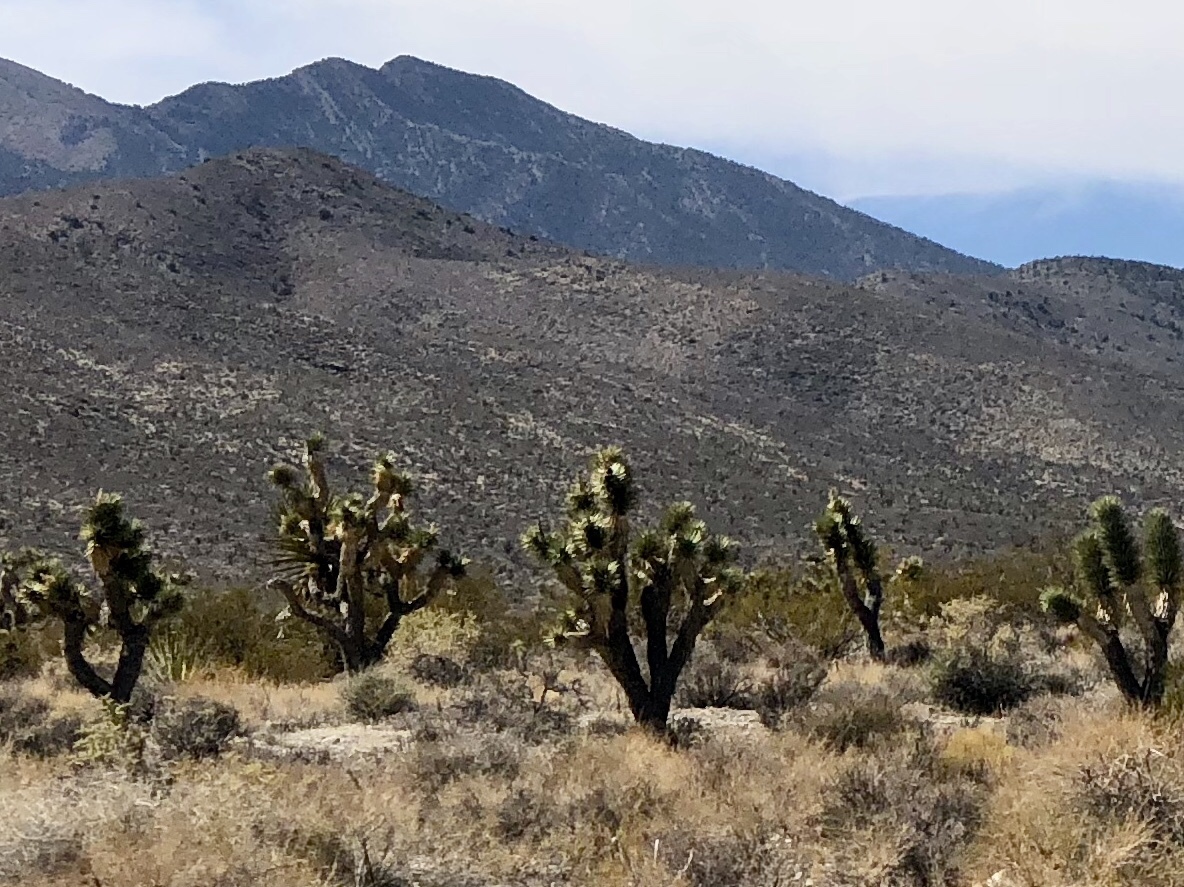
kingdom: Plantae
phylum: Tracheophyta
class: Liliopsida
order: Asparagales
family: Asparagaceae
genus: Yucca
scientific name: Yucca brevifolia
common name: Joshua tree
